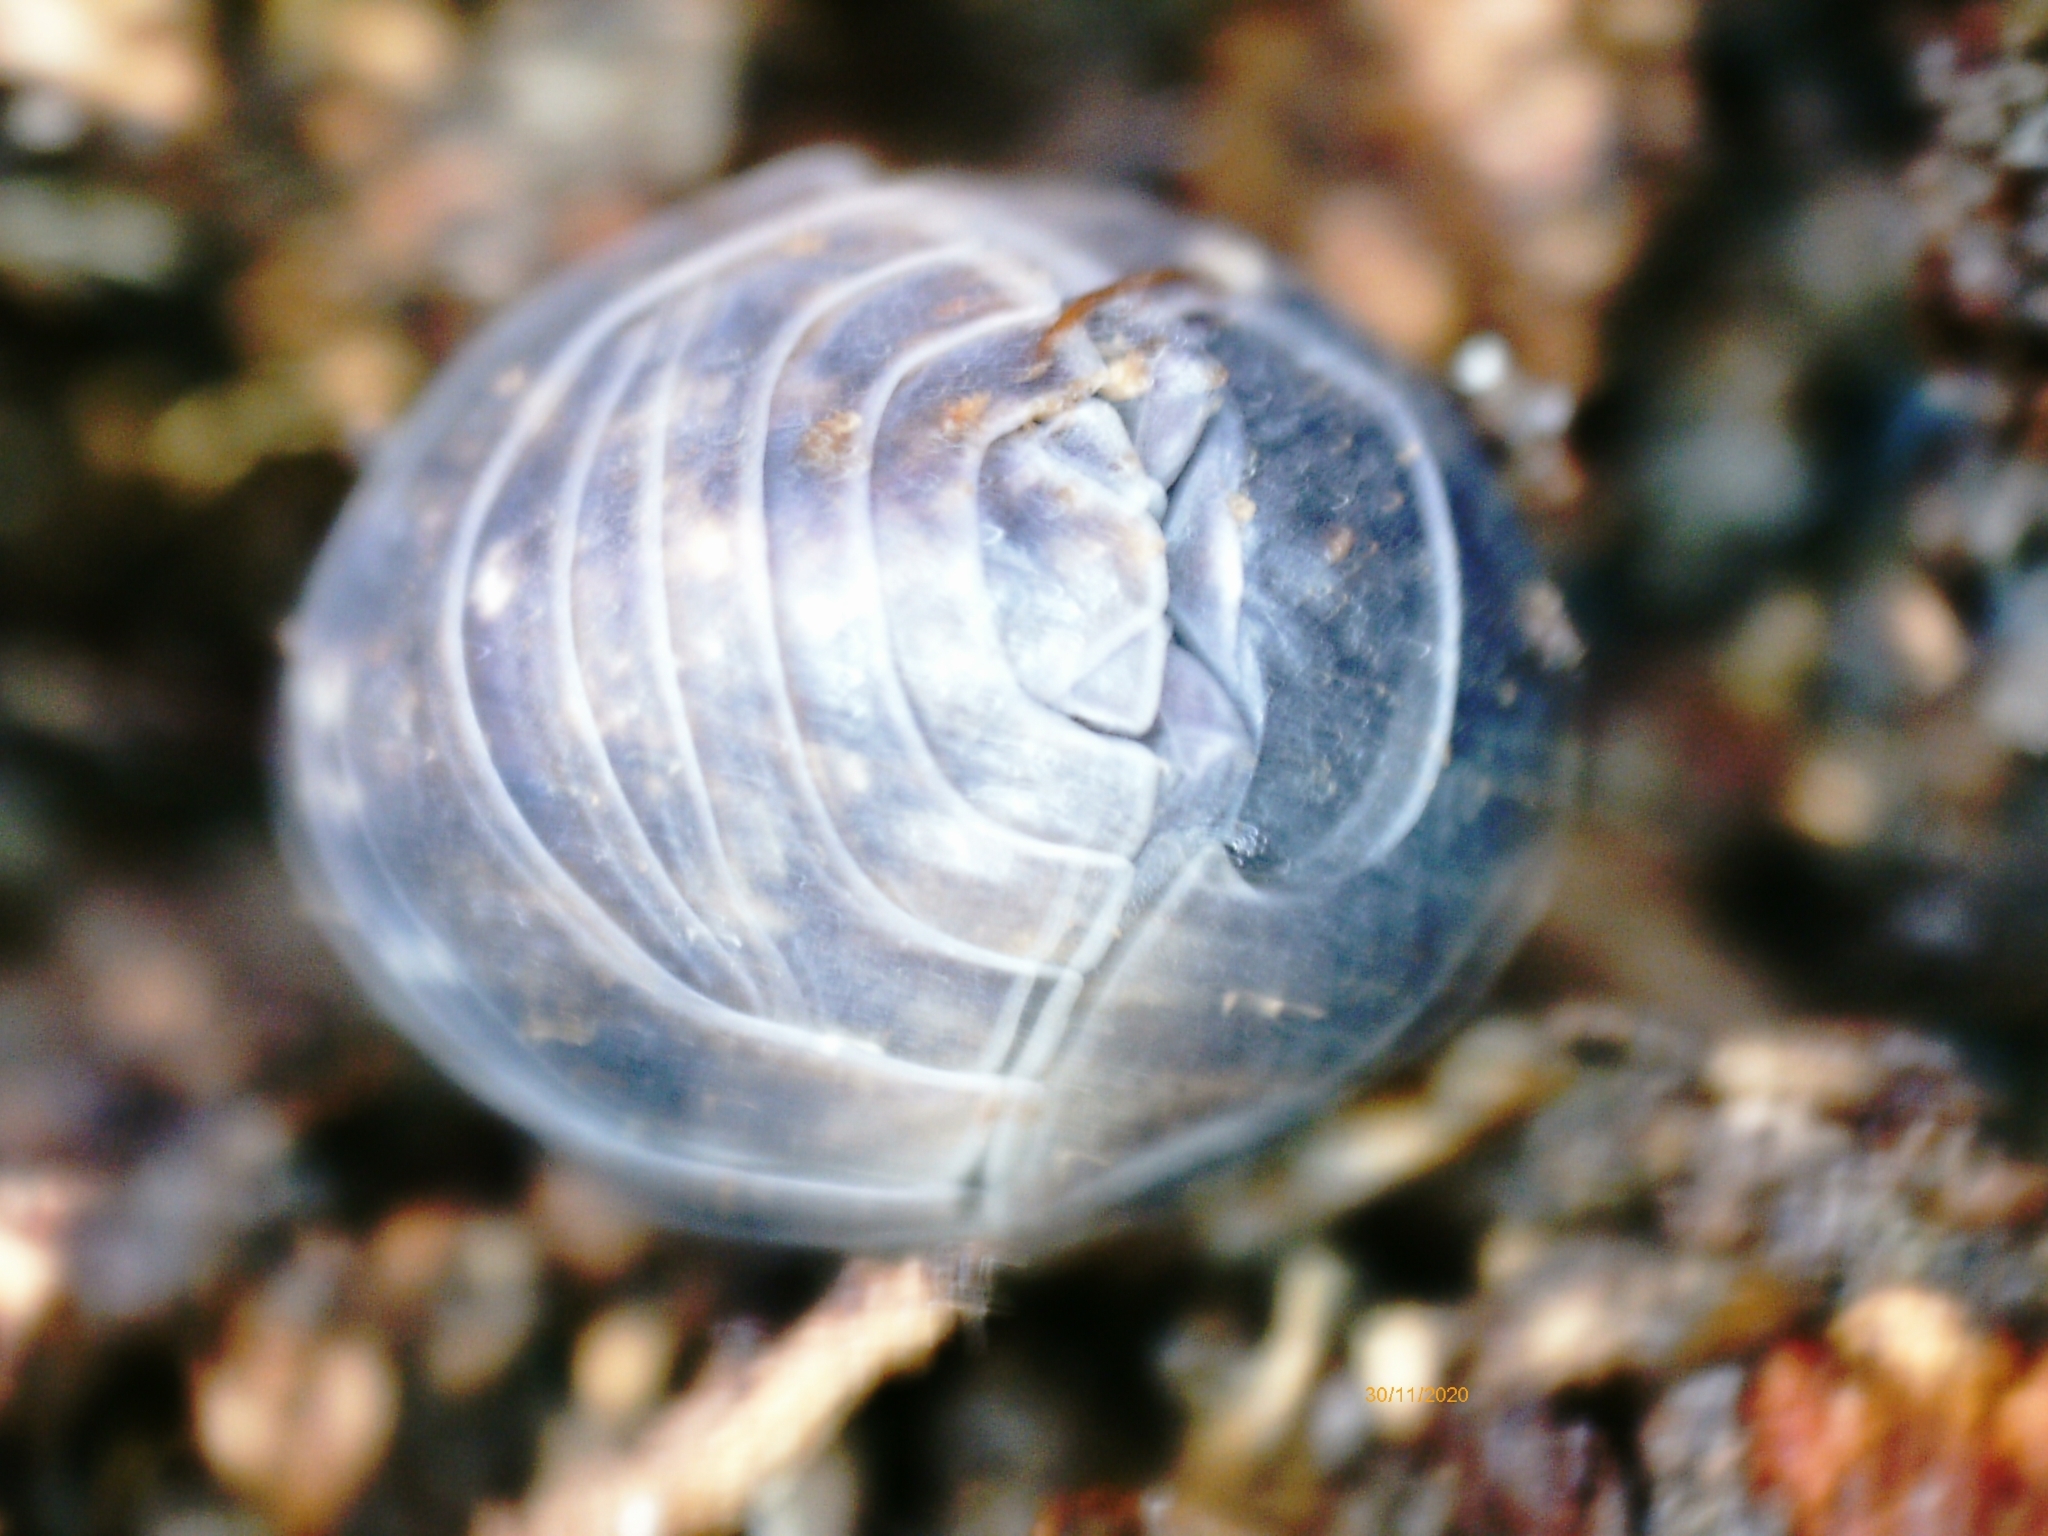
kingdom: Animalia
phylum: Arthropoda
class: Malacostraca
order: Isopoda
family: Armadillidiidae
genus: Armadillidium
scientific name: Armadillidium vulgare
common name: Common pill woodlouse
